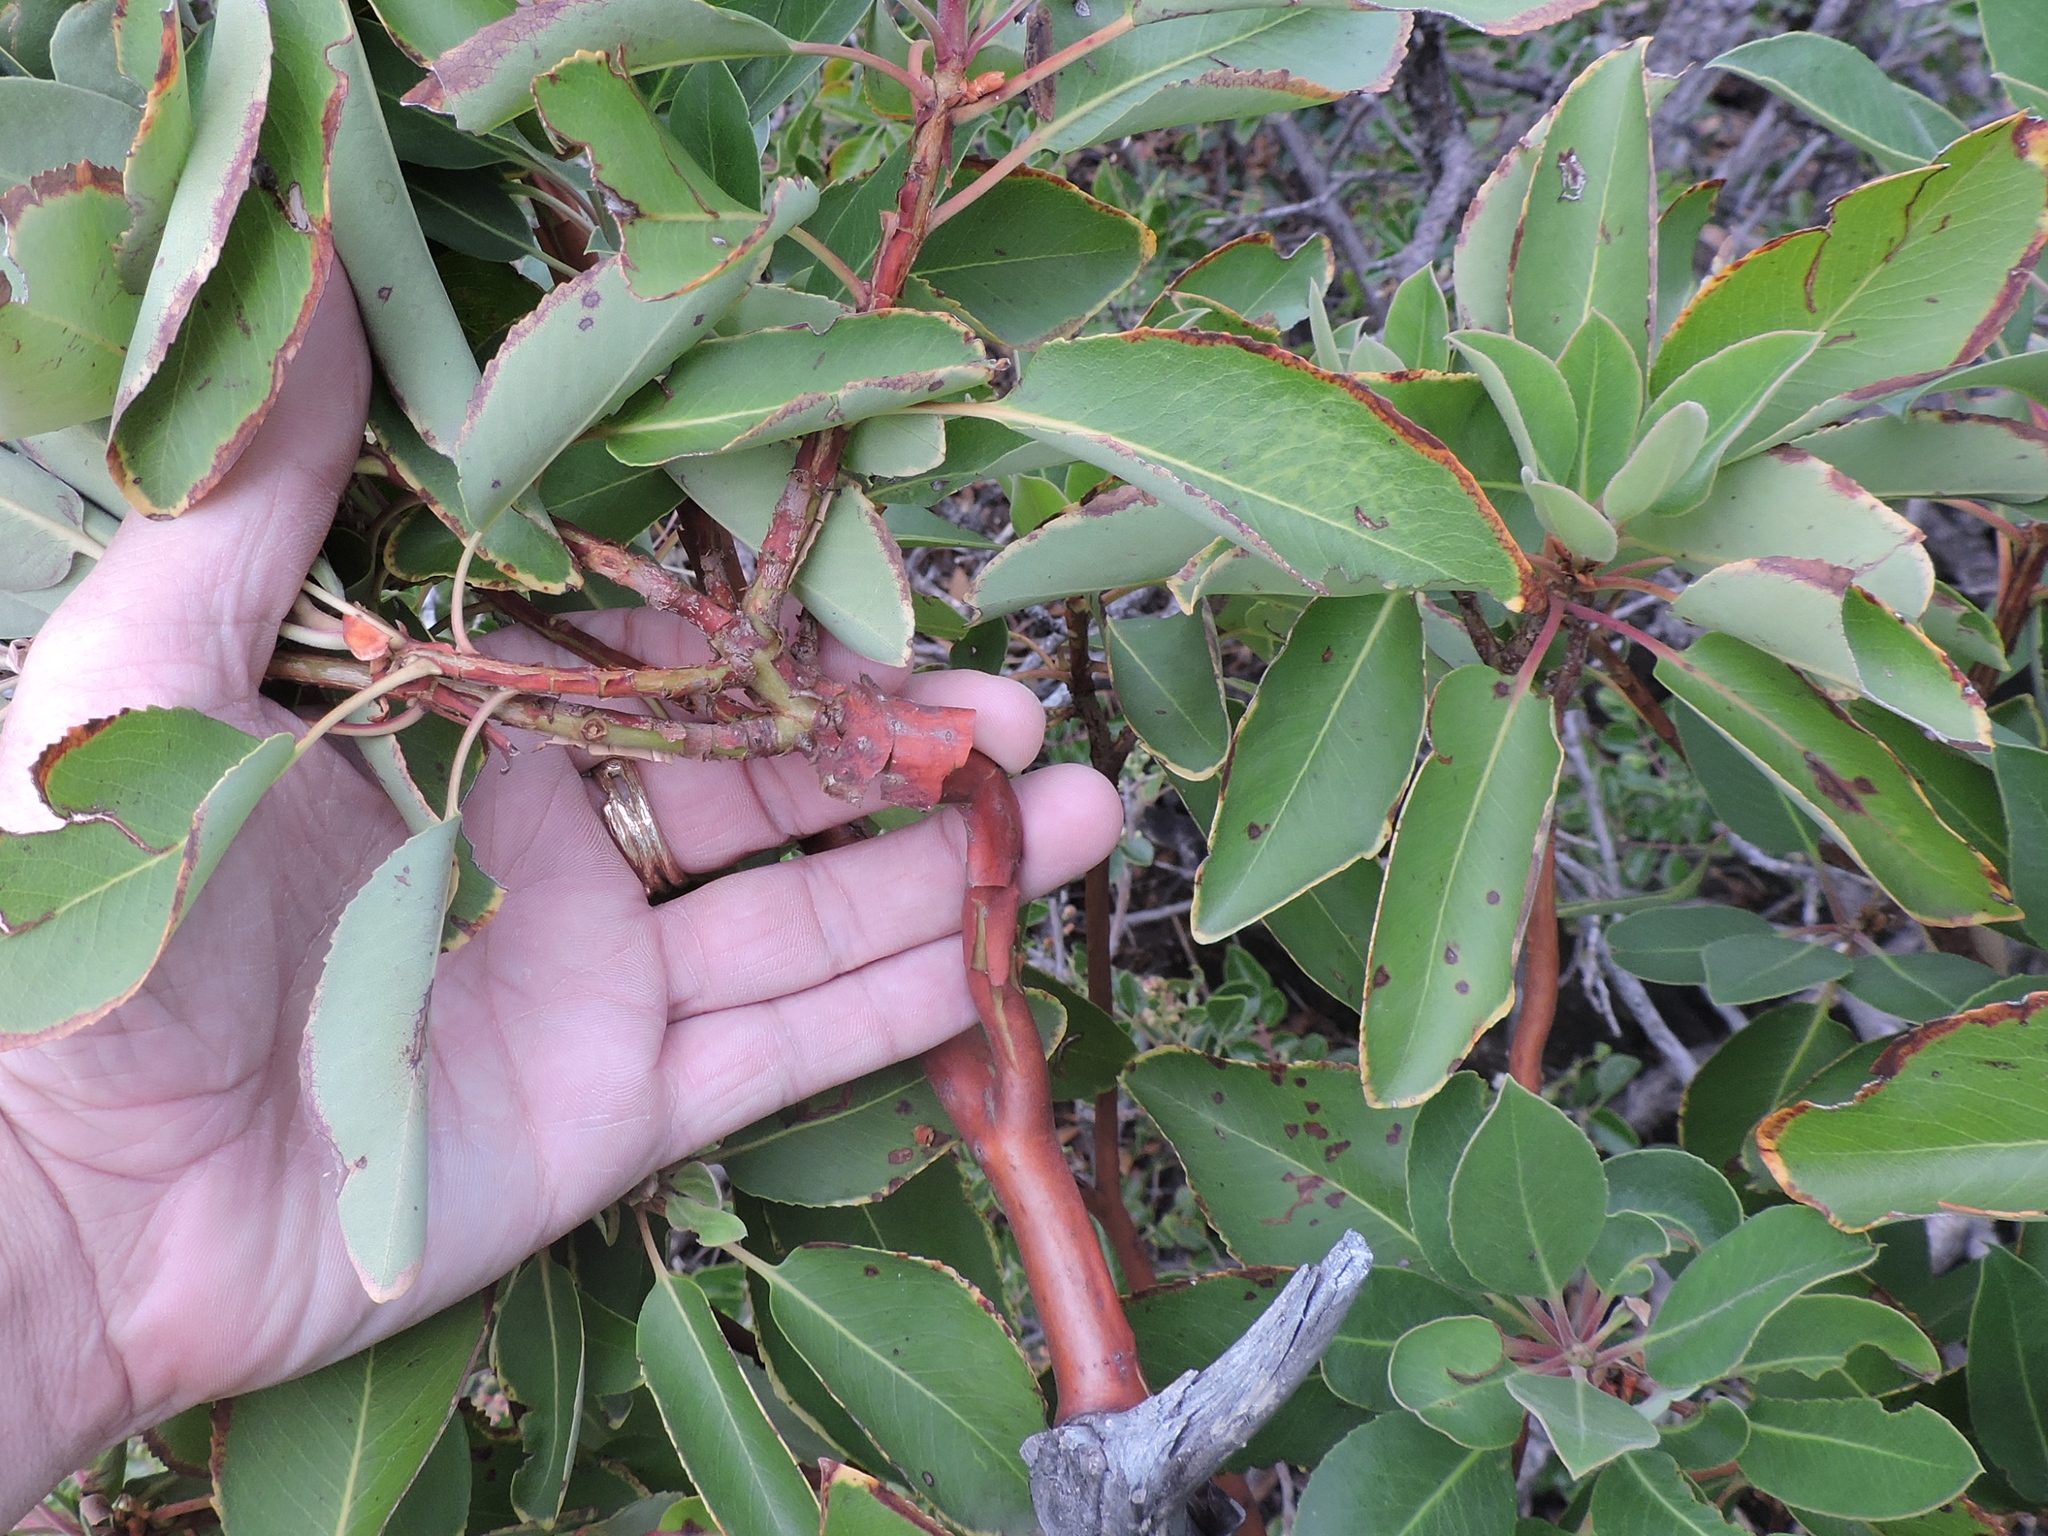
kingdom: Plantae
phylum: Tracheophyta
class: Magnoliopsida
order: Ericales
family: Ericaceae
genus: Arbutus
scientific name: Arbutus xalapensis
